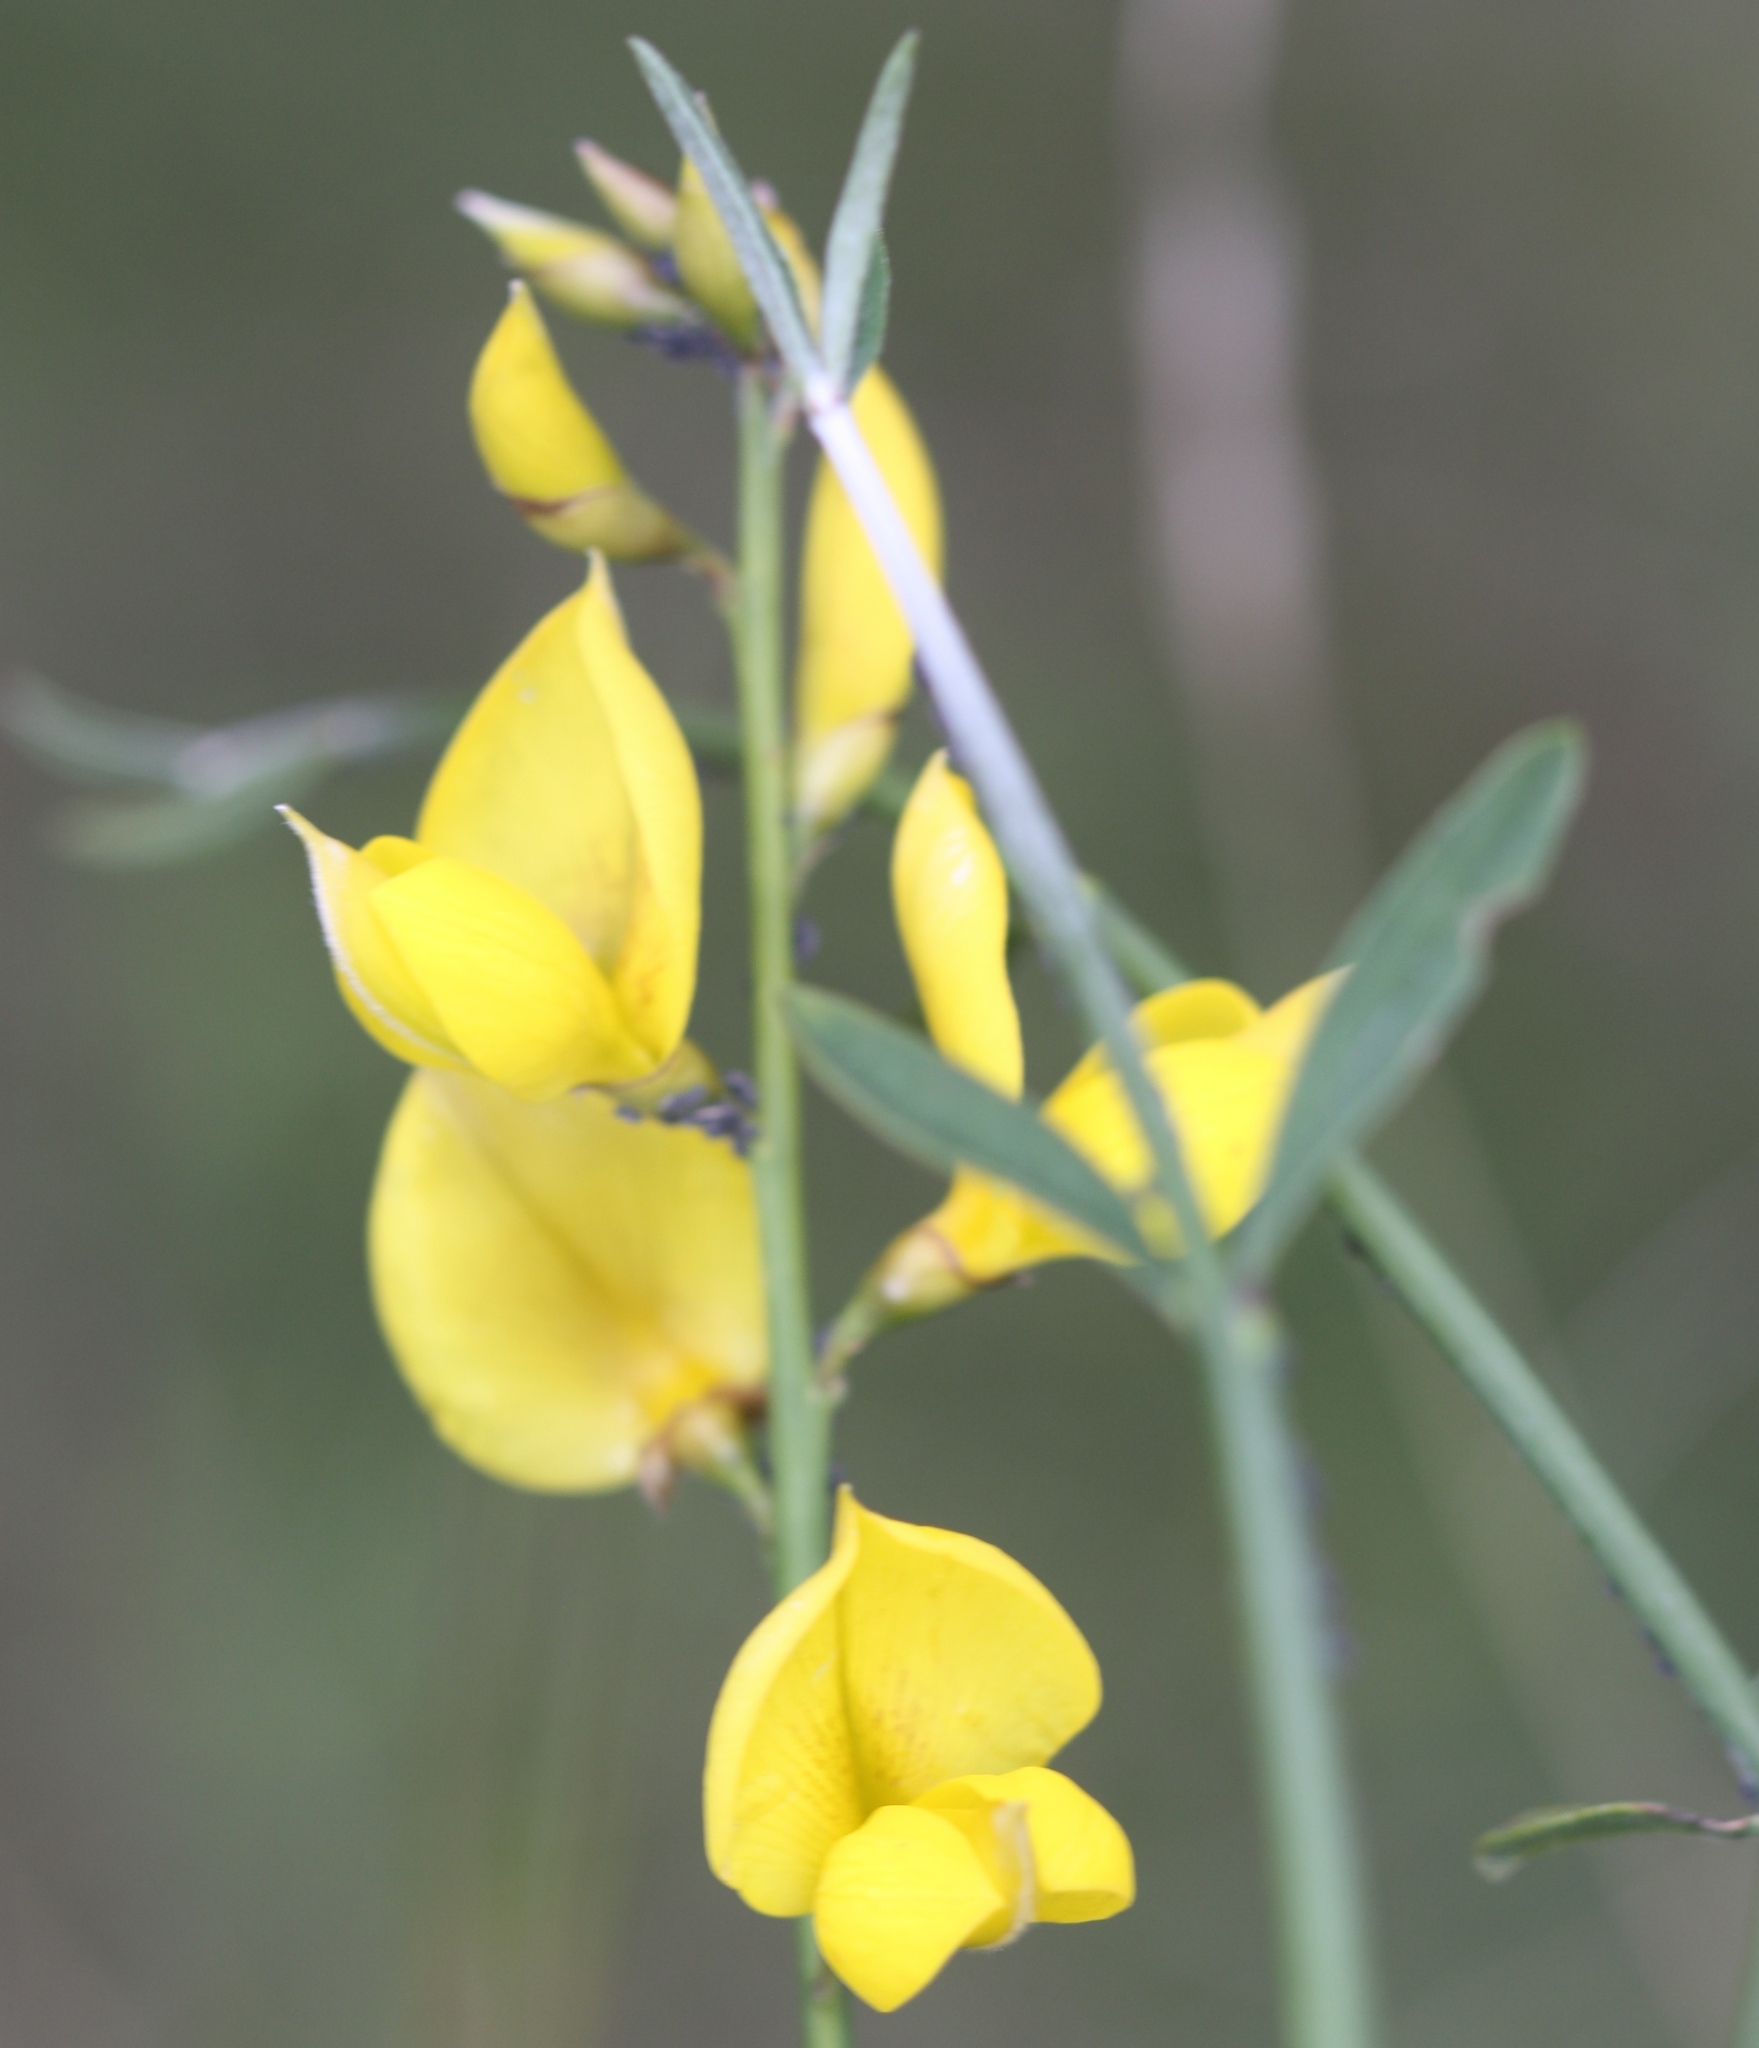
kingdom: Plantae
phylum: Tracheophyta
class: Magnoliopsida
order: Fabales
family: Fabaceae
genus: Spartium
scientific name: Spartium junceum
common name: Spanish broom
